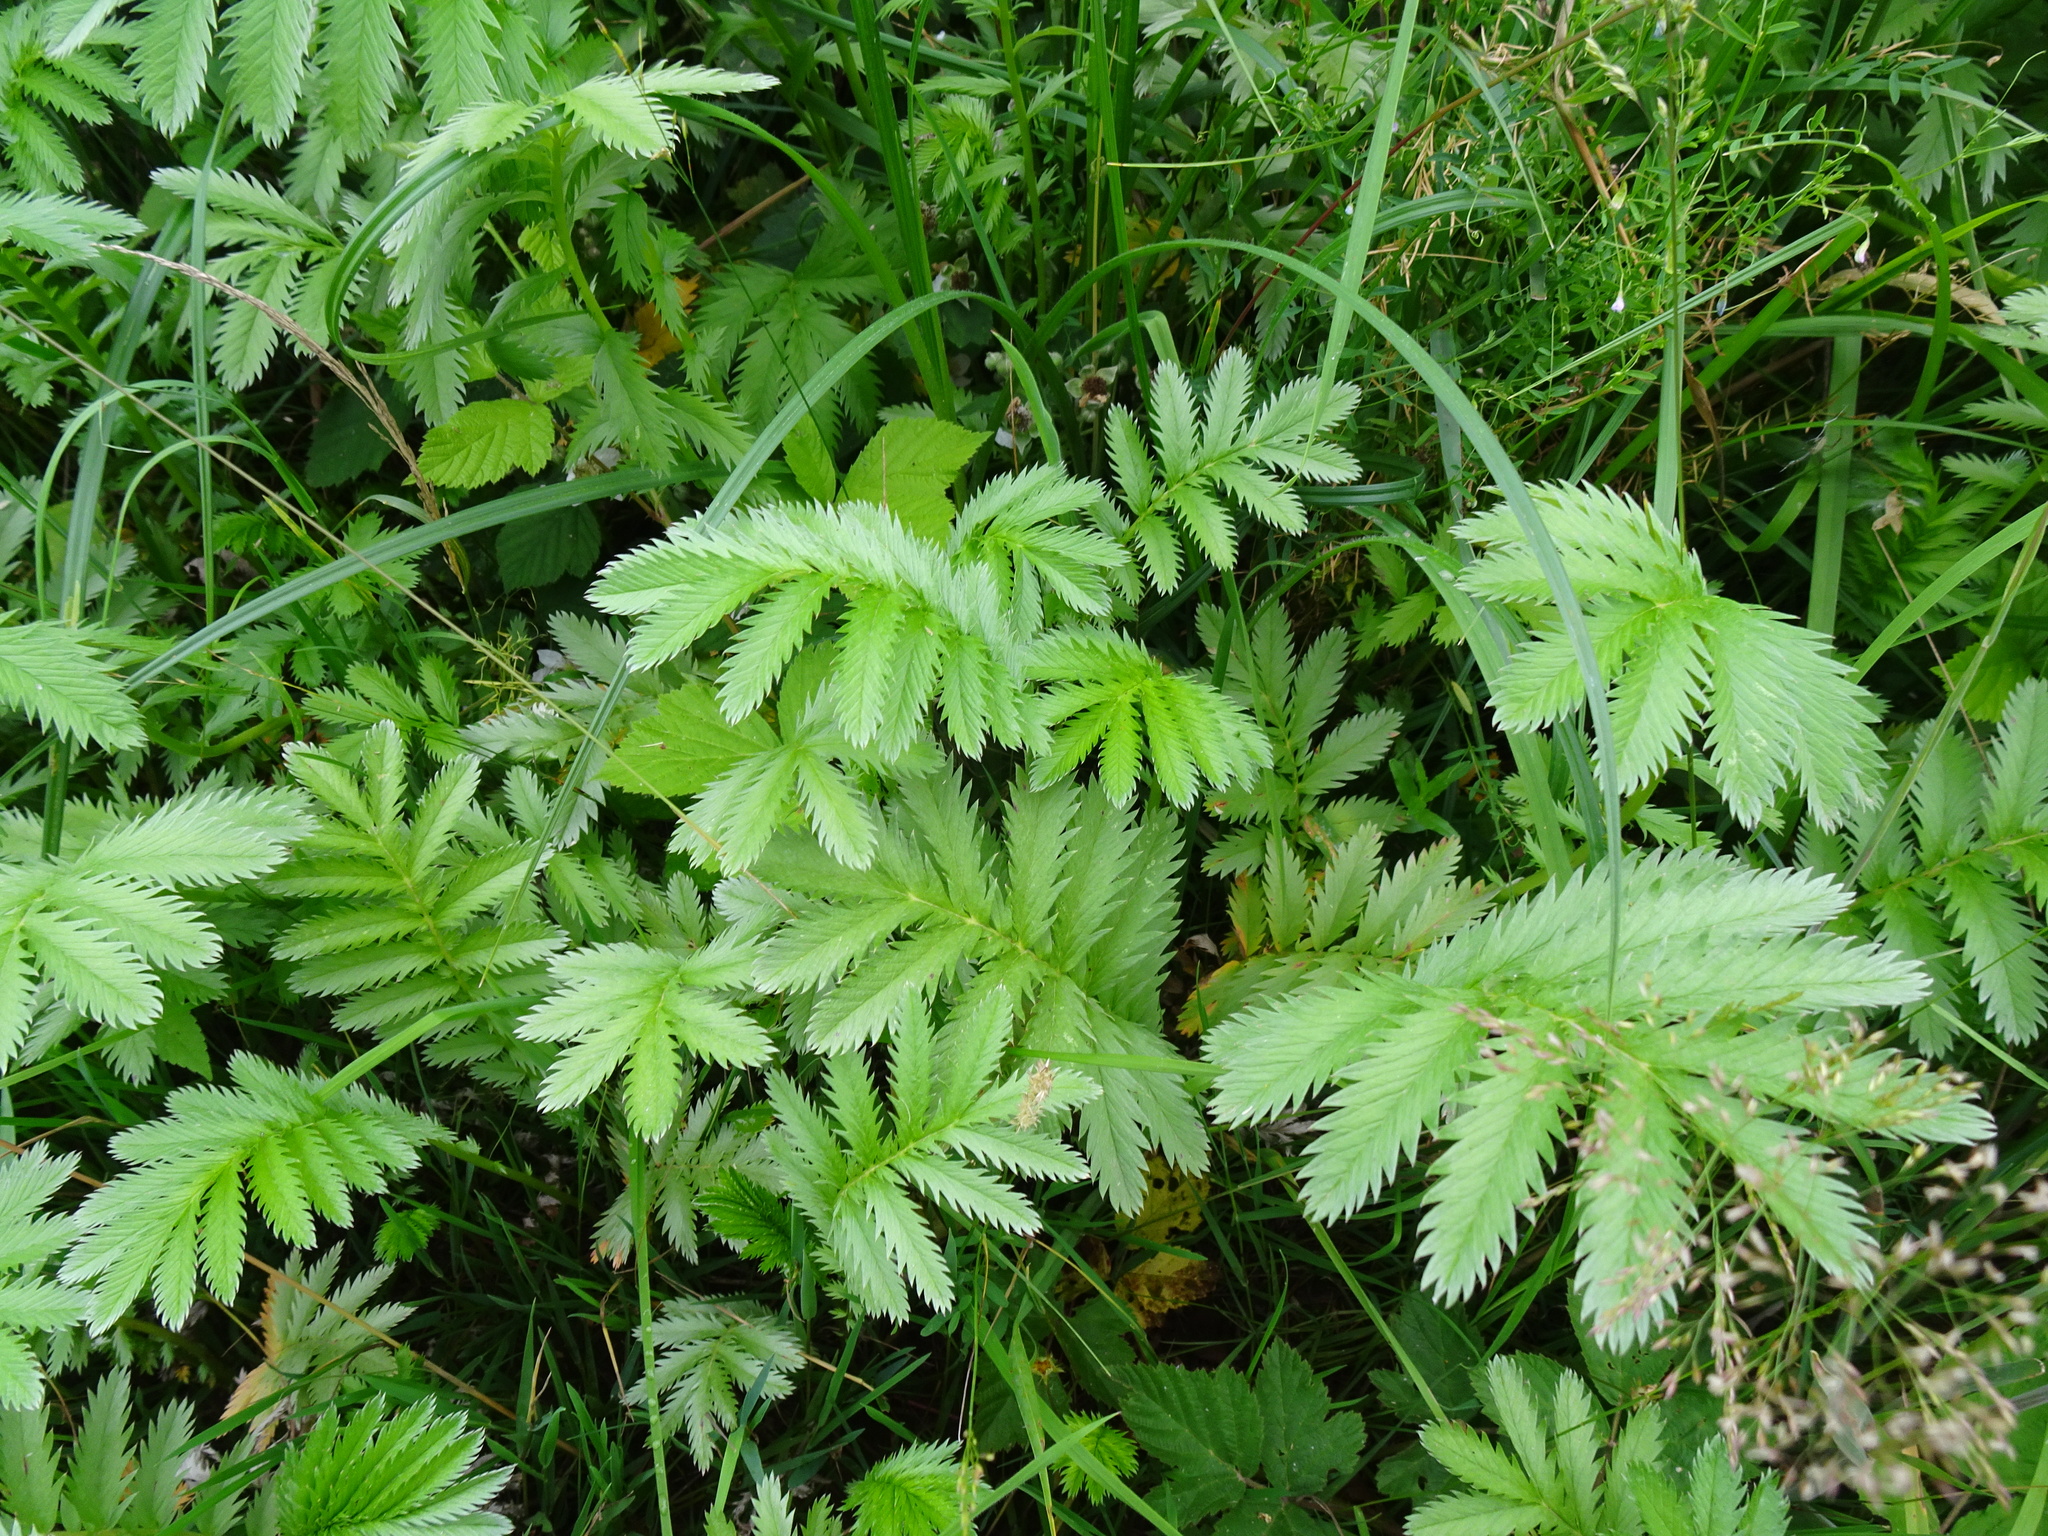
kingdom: Plantae
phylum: Tracheophyta
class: Magnoliopsida
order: Rosales
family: Rosaceae
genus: Argentina
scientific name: Argentina anserina
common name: Common silverweed
